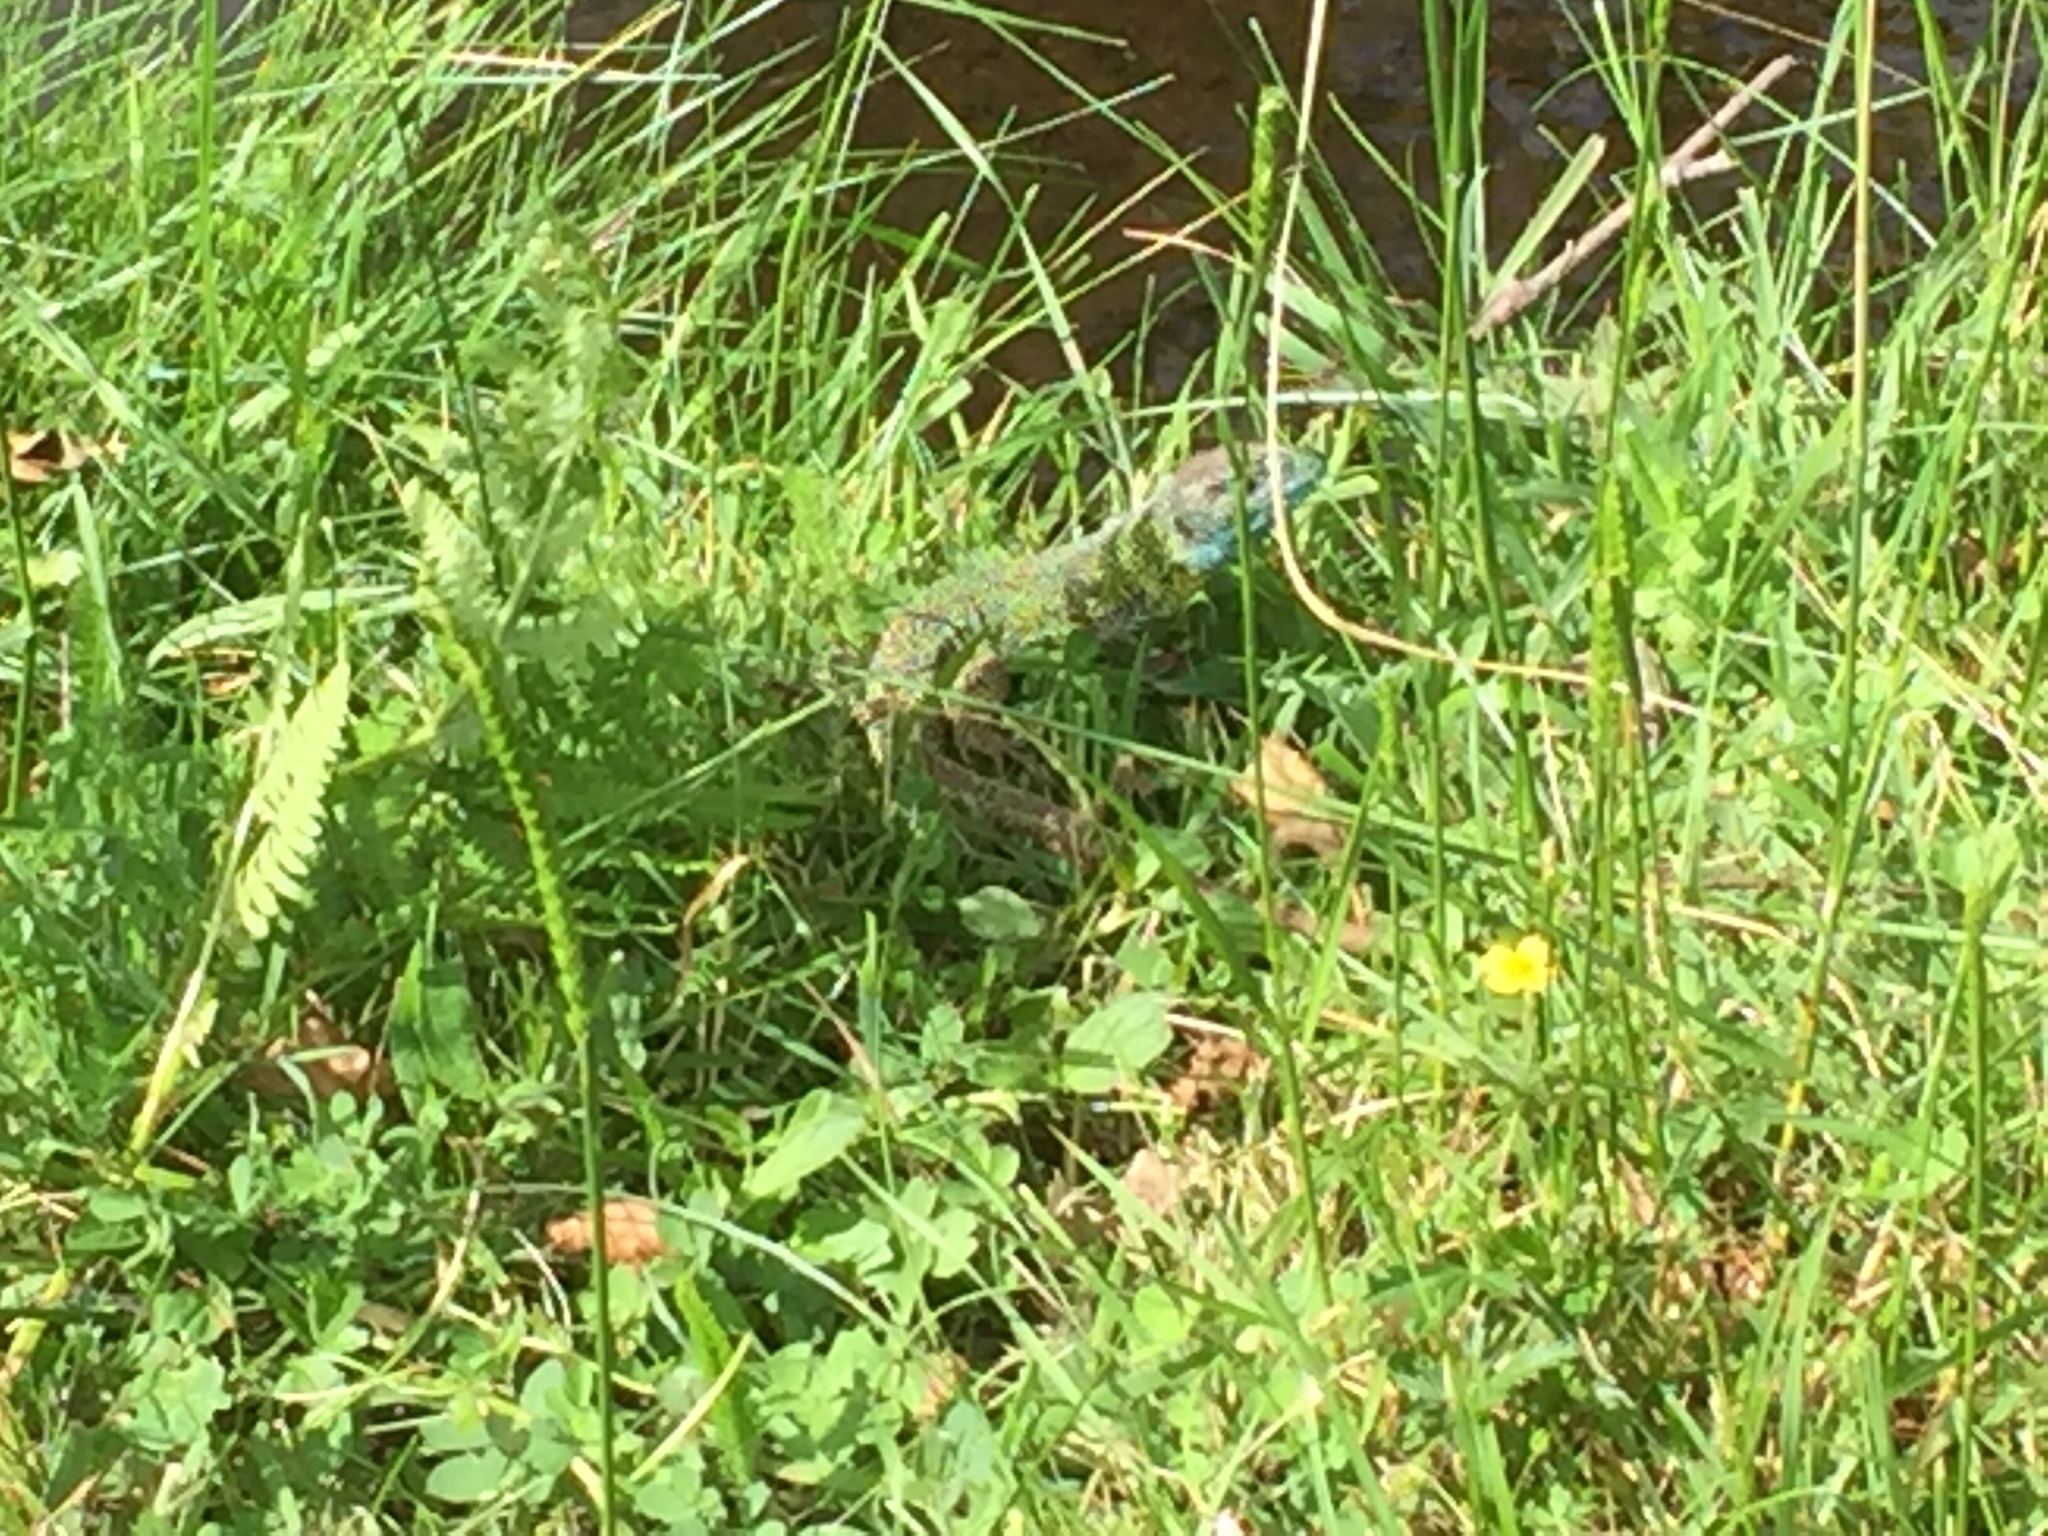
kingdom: Animalia
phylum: Chordata
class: Squamata
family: Lacertidae
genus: Lacerta
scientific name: Lacerta schreiberi
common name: Iberian emerald lizard
